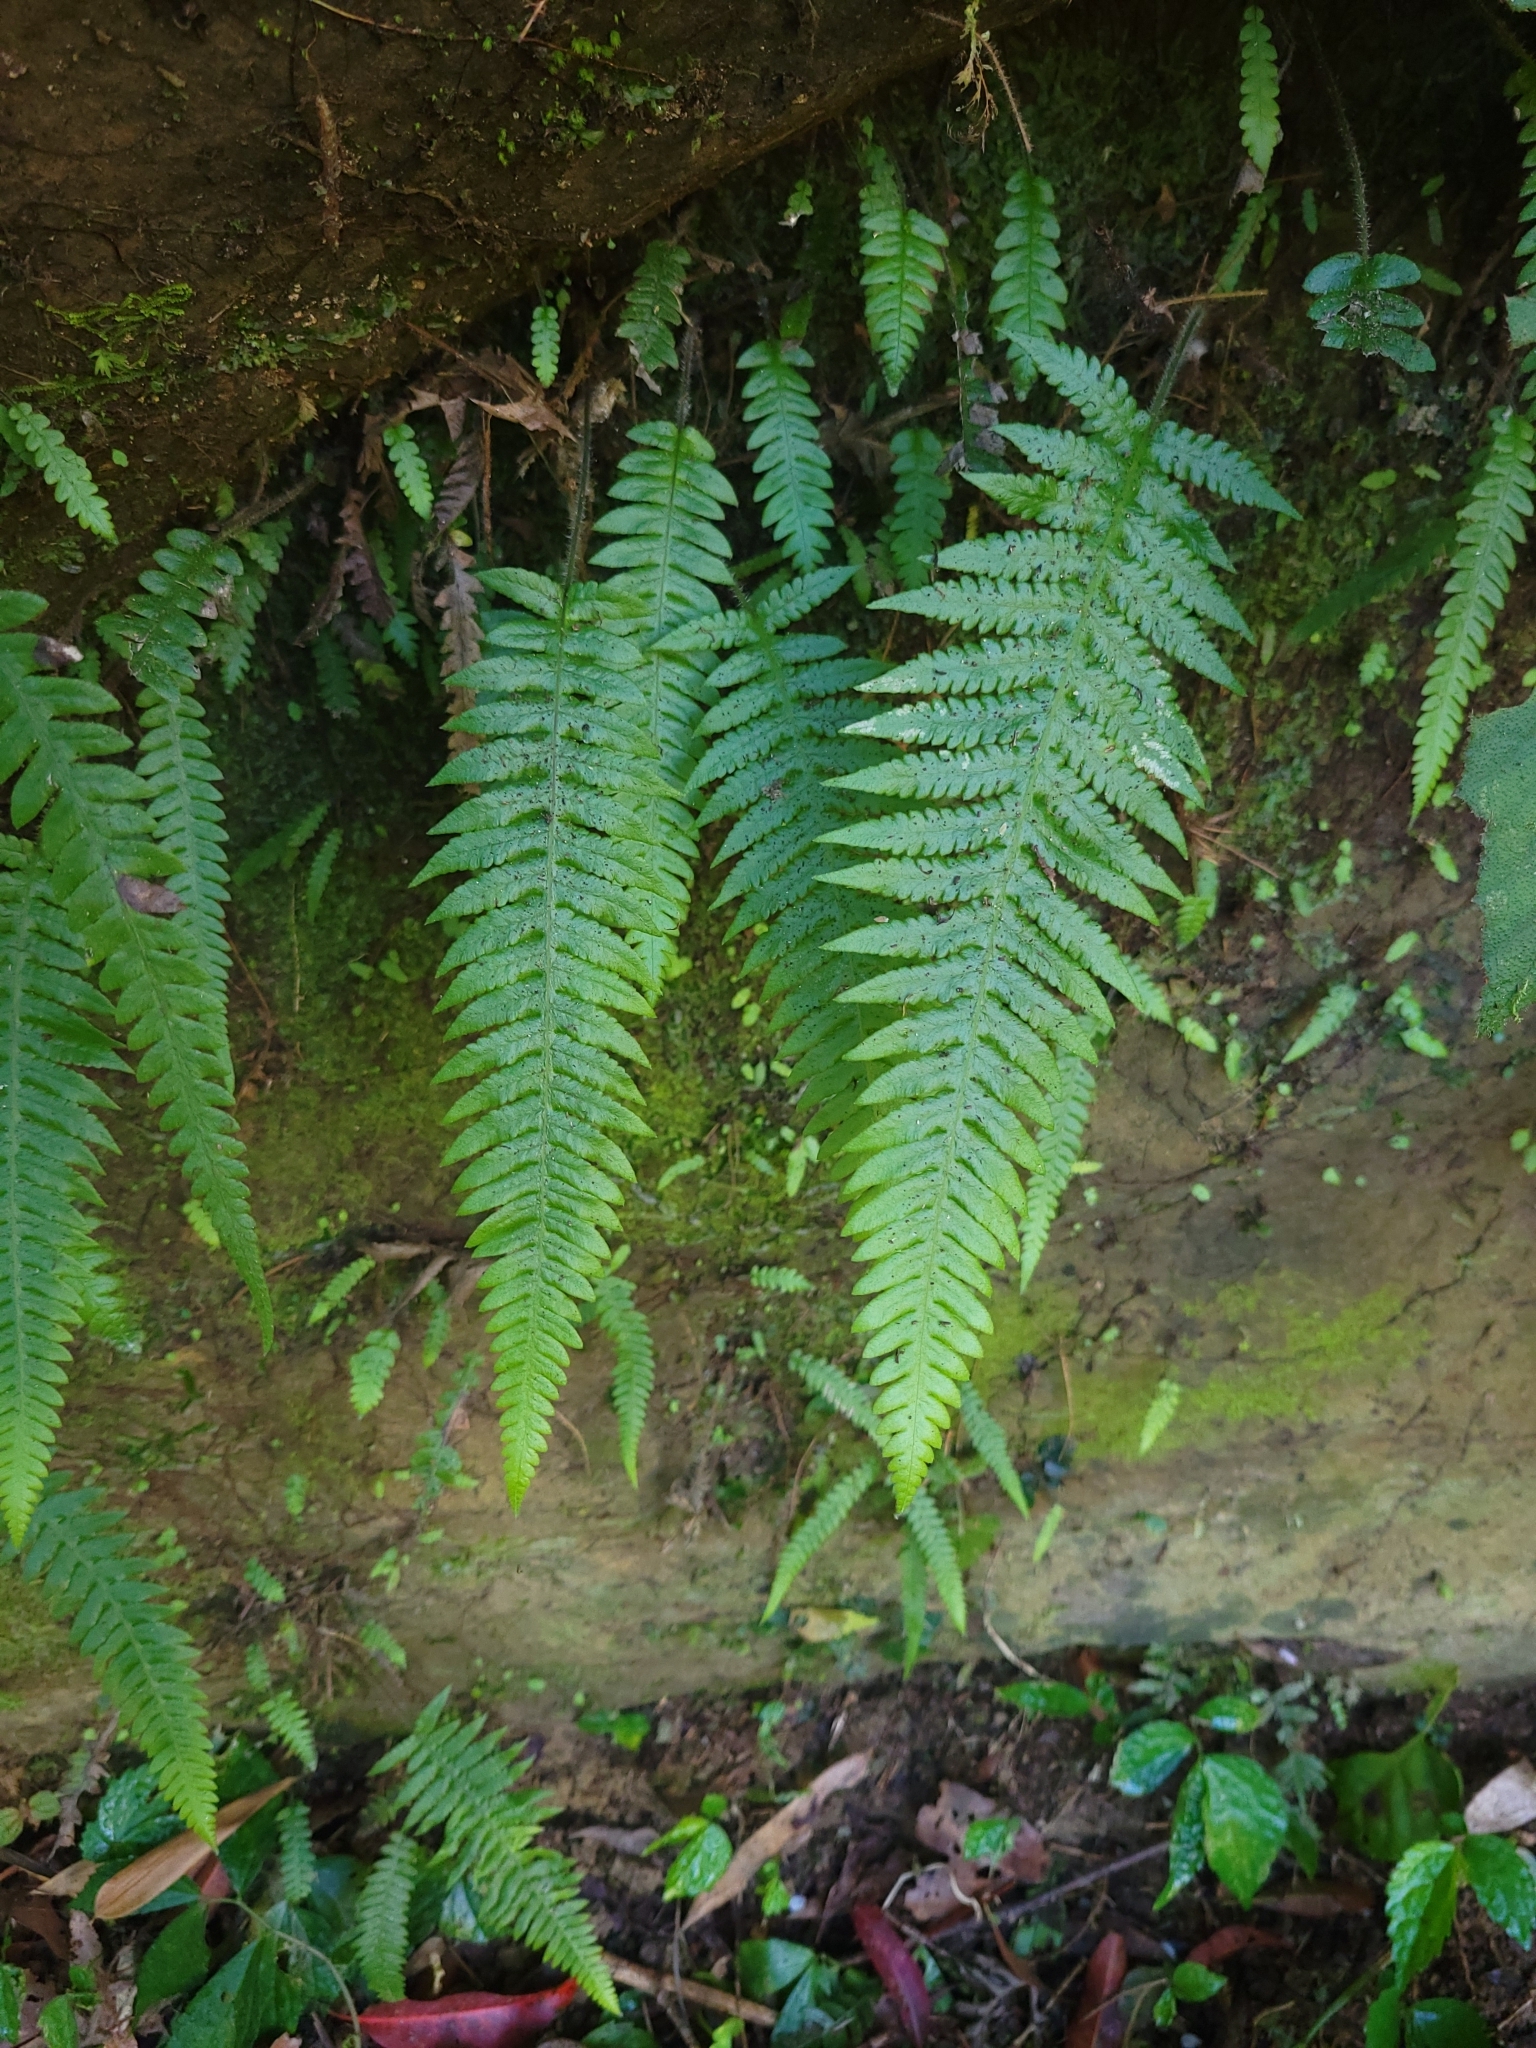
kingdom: Plantae
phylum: Tracheophyta
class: Polypodiopsida
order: Polypodiales
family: Thelypteridaceae
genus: Phegopteris
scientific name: Phegopteris decursive-pinnata
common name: Japanese beech fern
